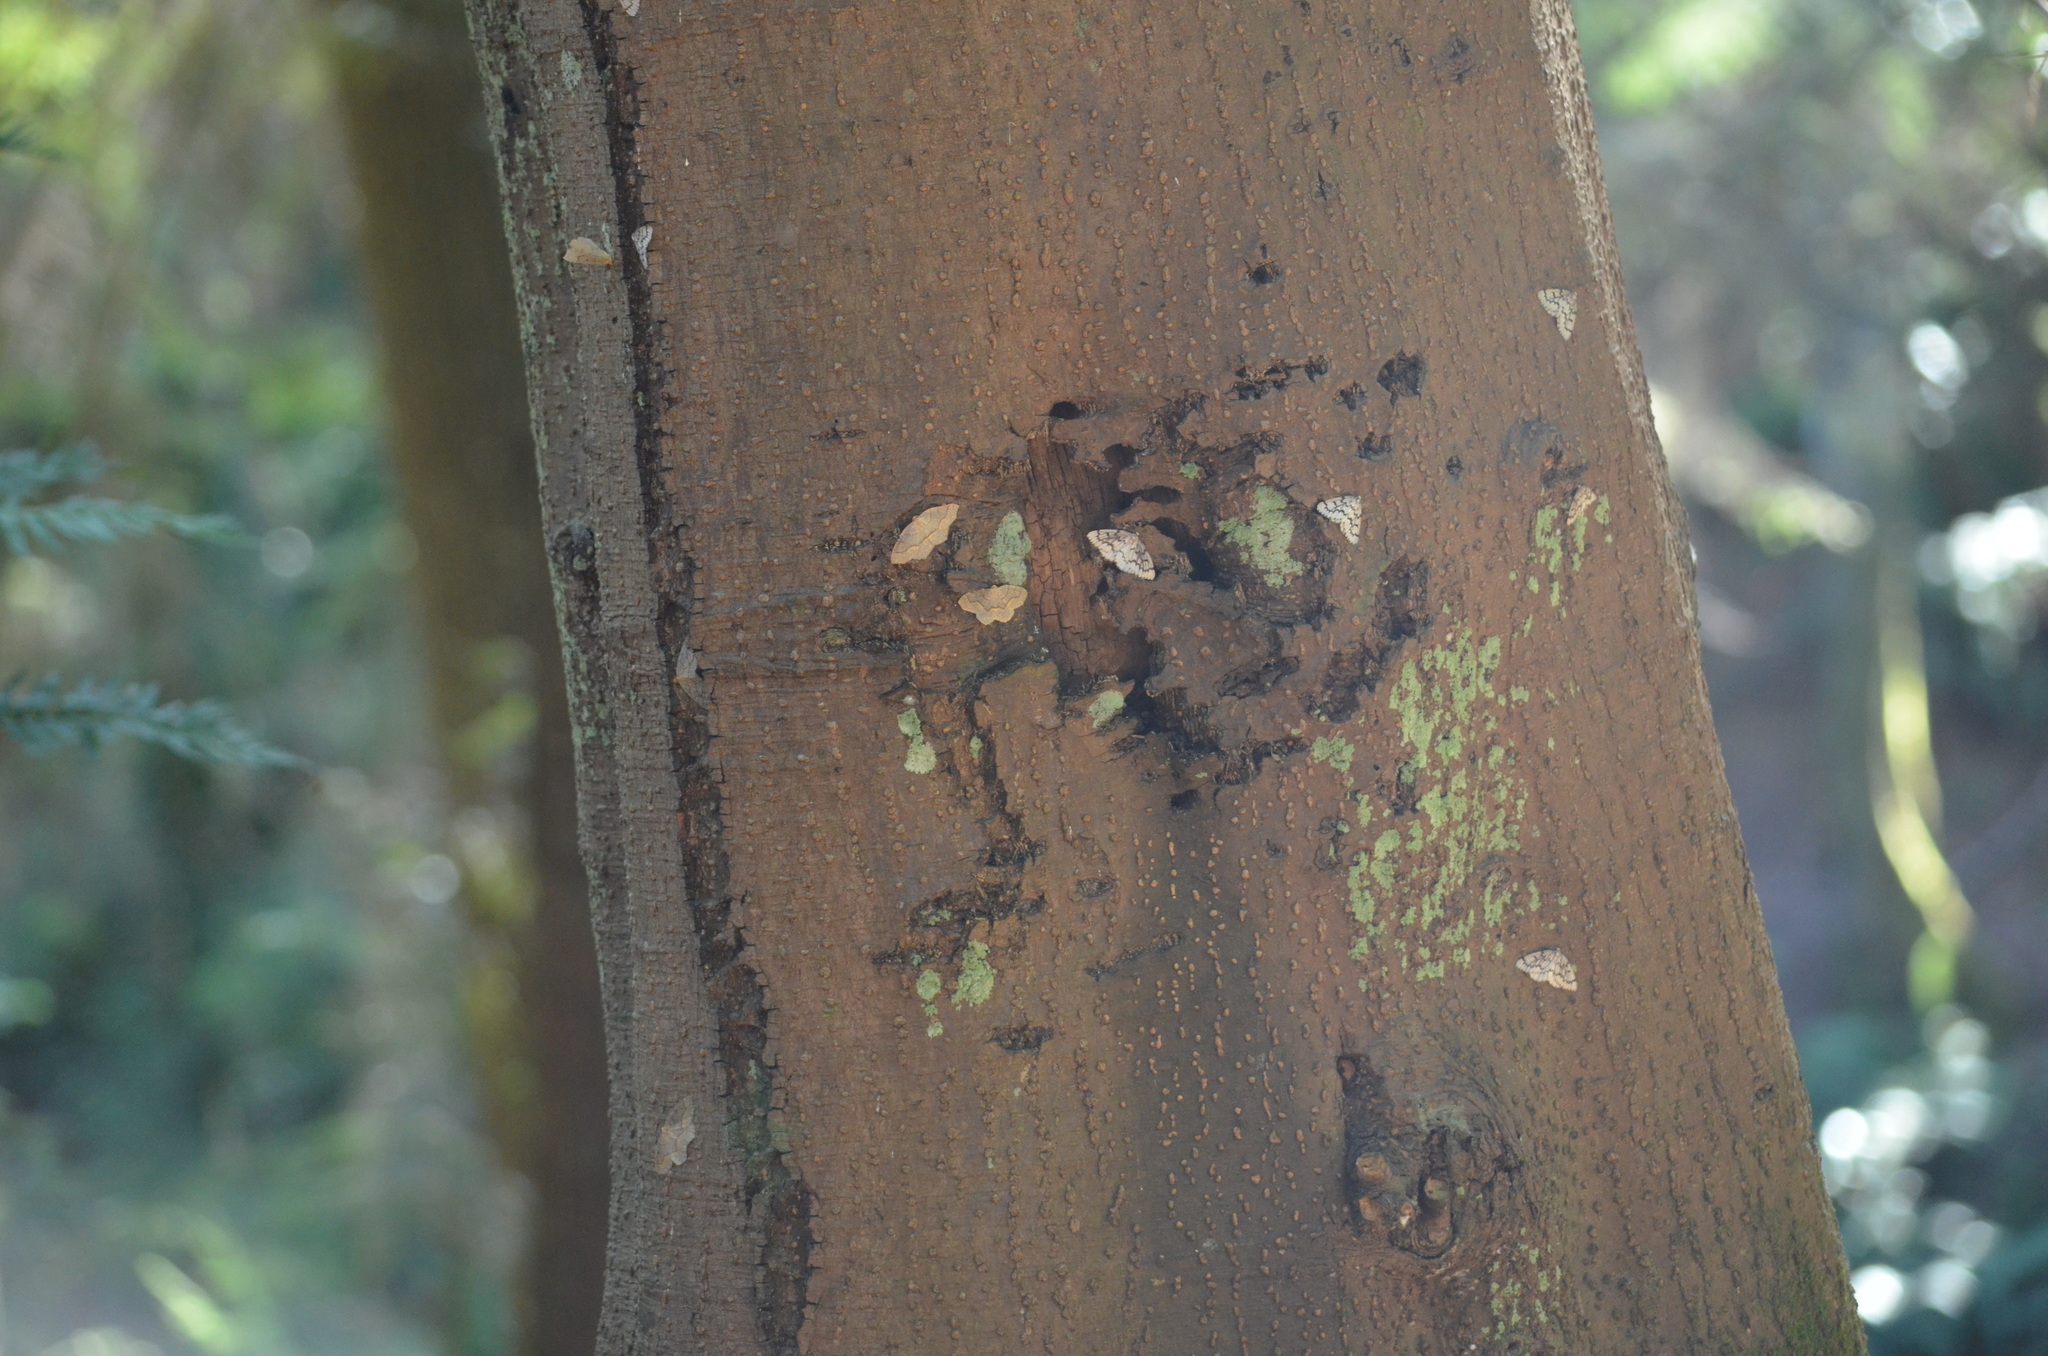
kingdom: Animalia
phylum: Arthropoda
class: Insecta
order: Lepidoptera
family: Geometridae
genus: Lambdina
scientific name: Lambdina fiscellaria
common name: Hemlock looper
